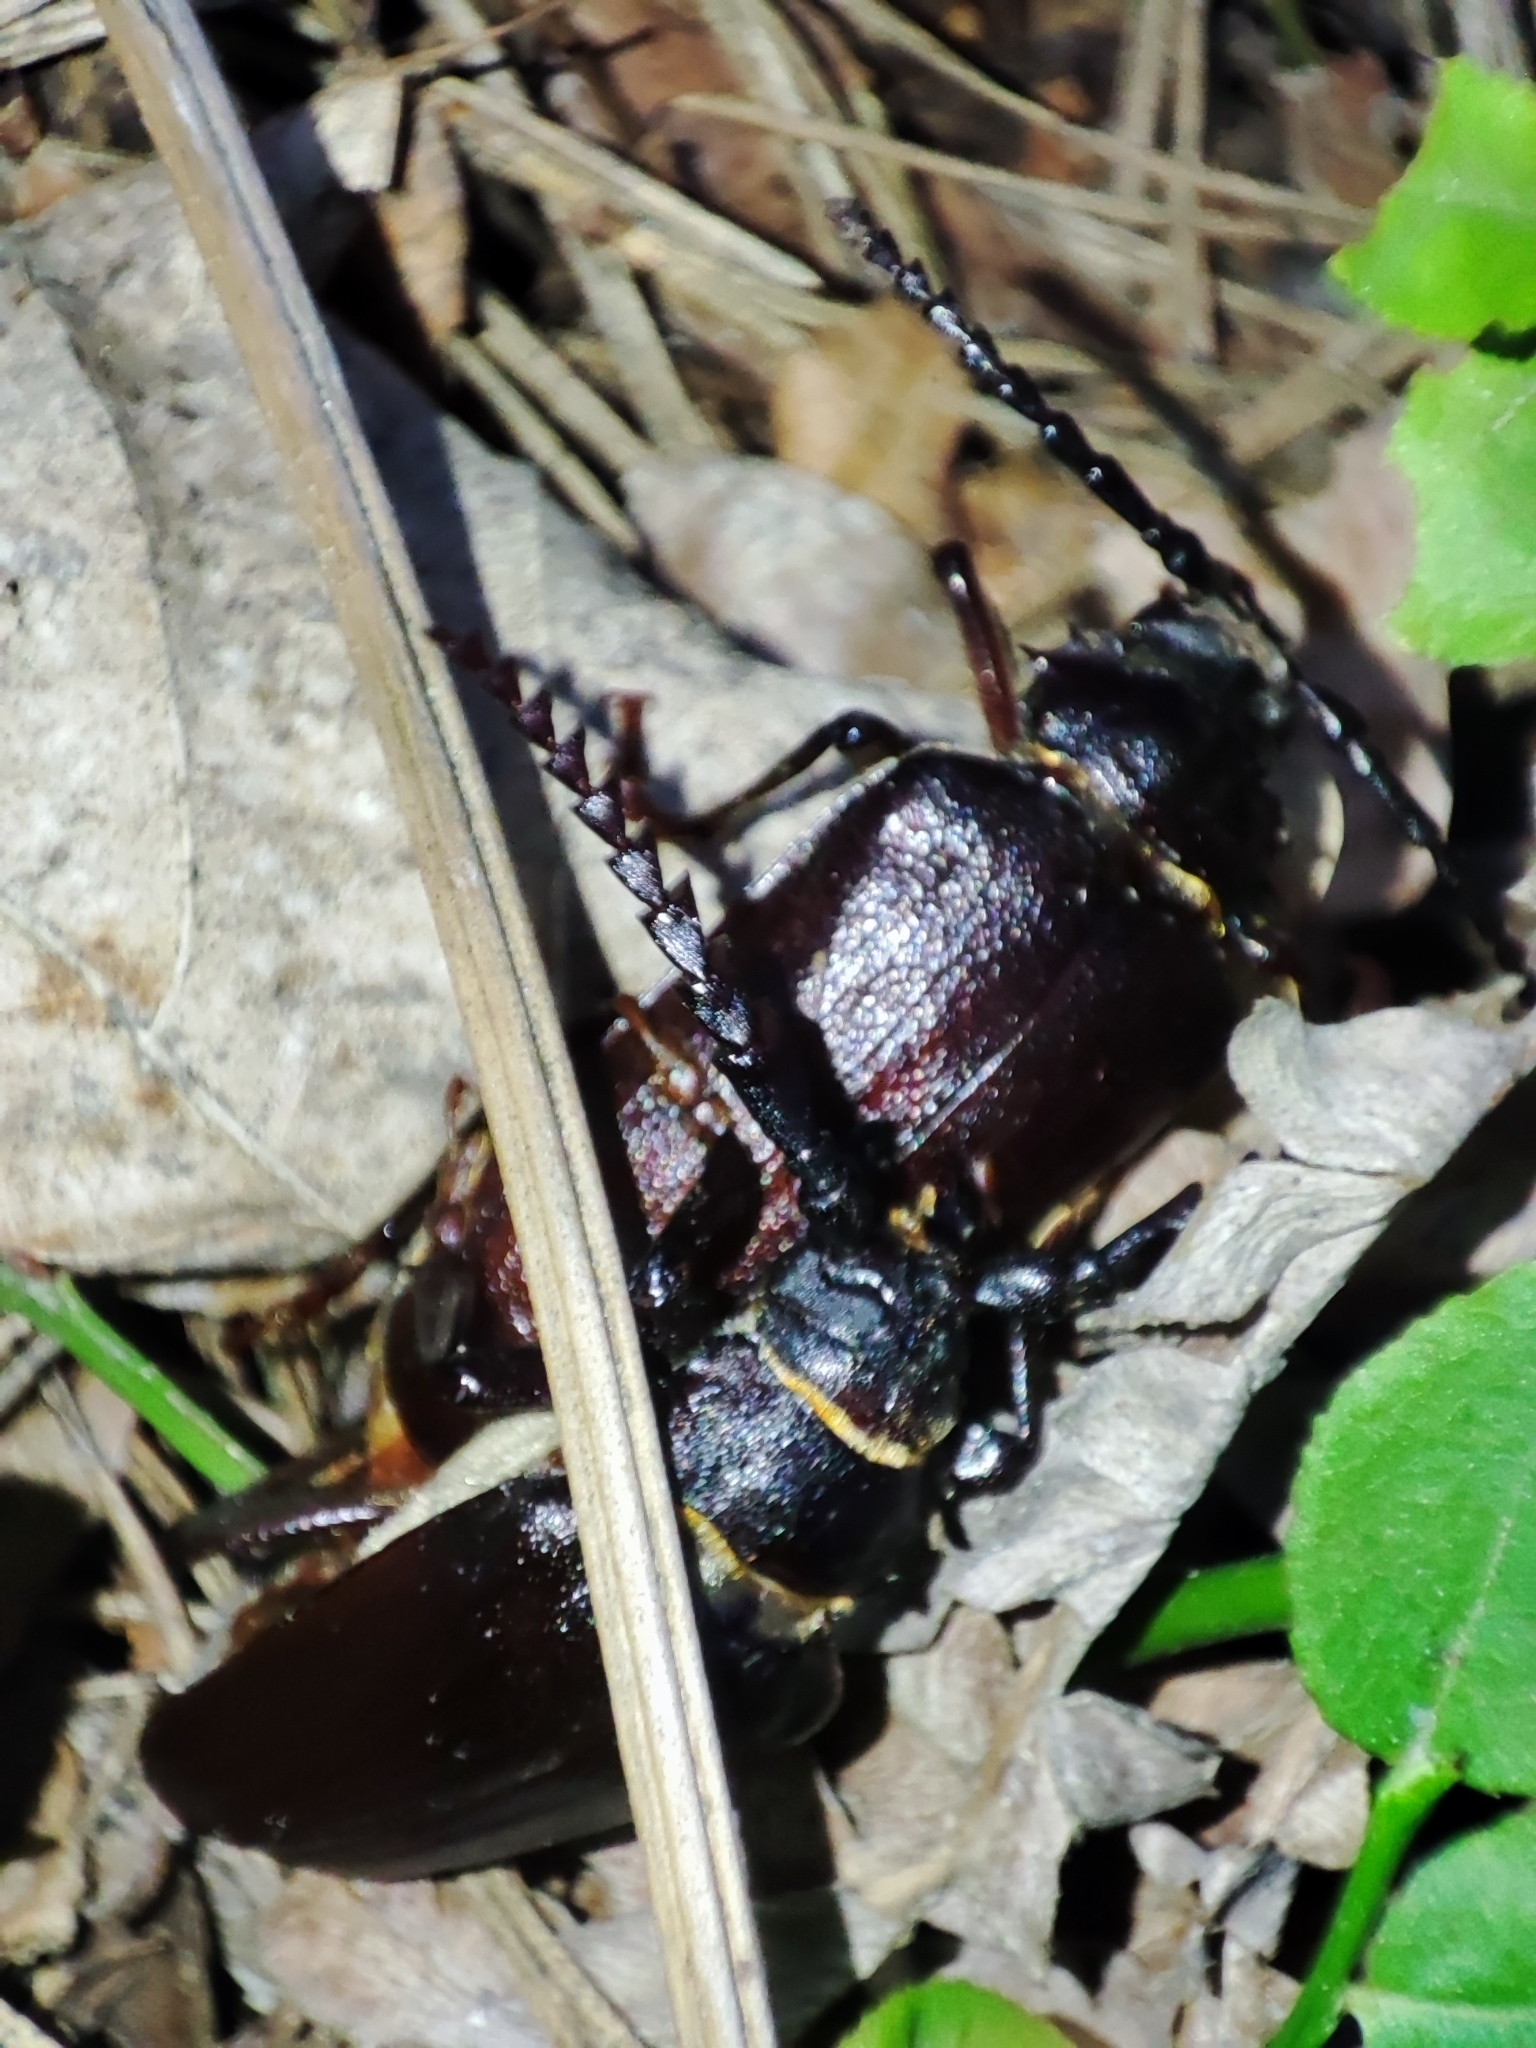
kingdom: Animalia
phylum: Arthropoda
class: Insecta
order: Coleoptera
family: Cerambycidae
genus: Prionus
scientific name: Prionus coriarius
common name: Tanner beetle
